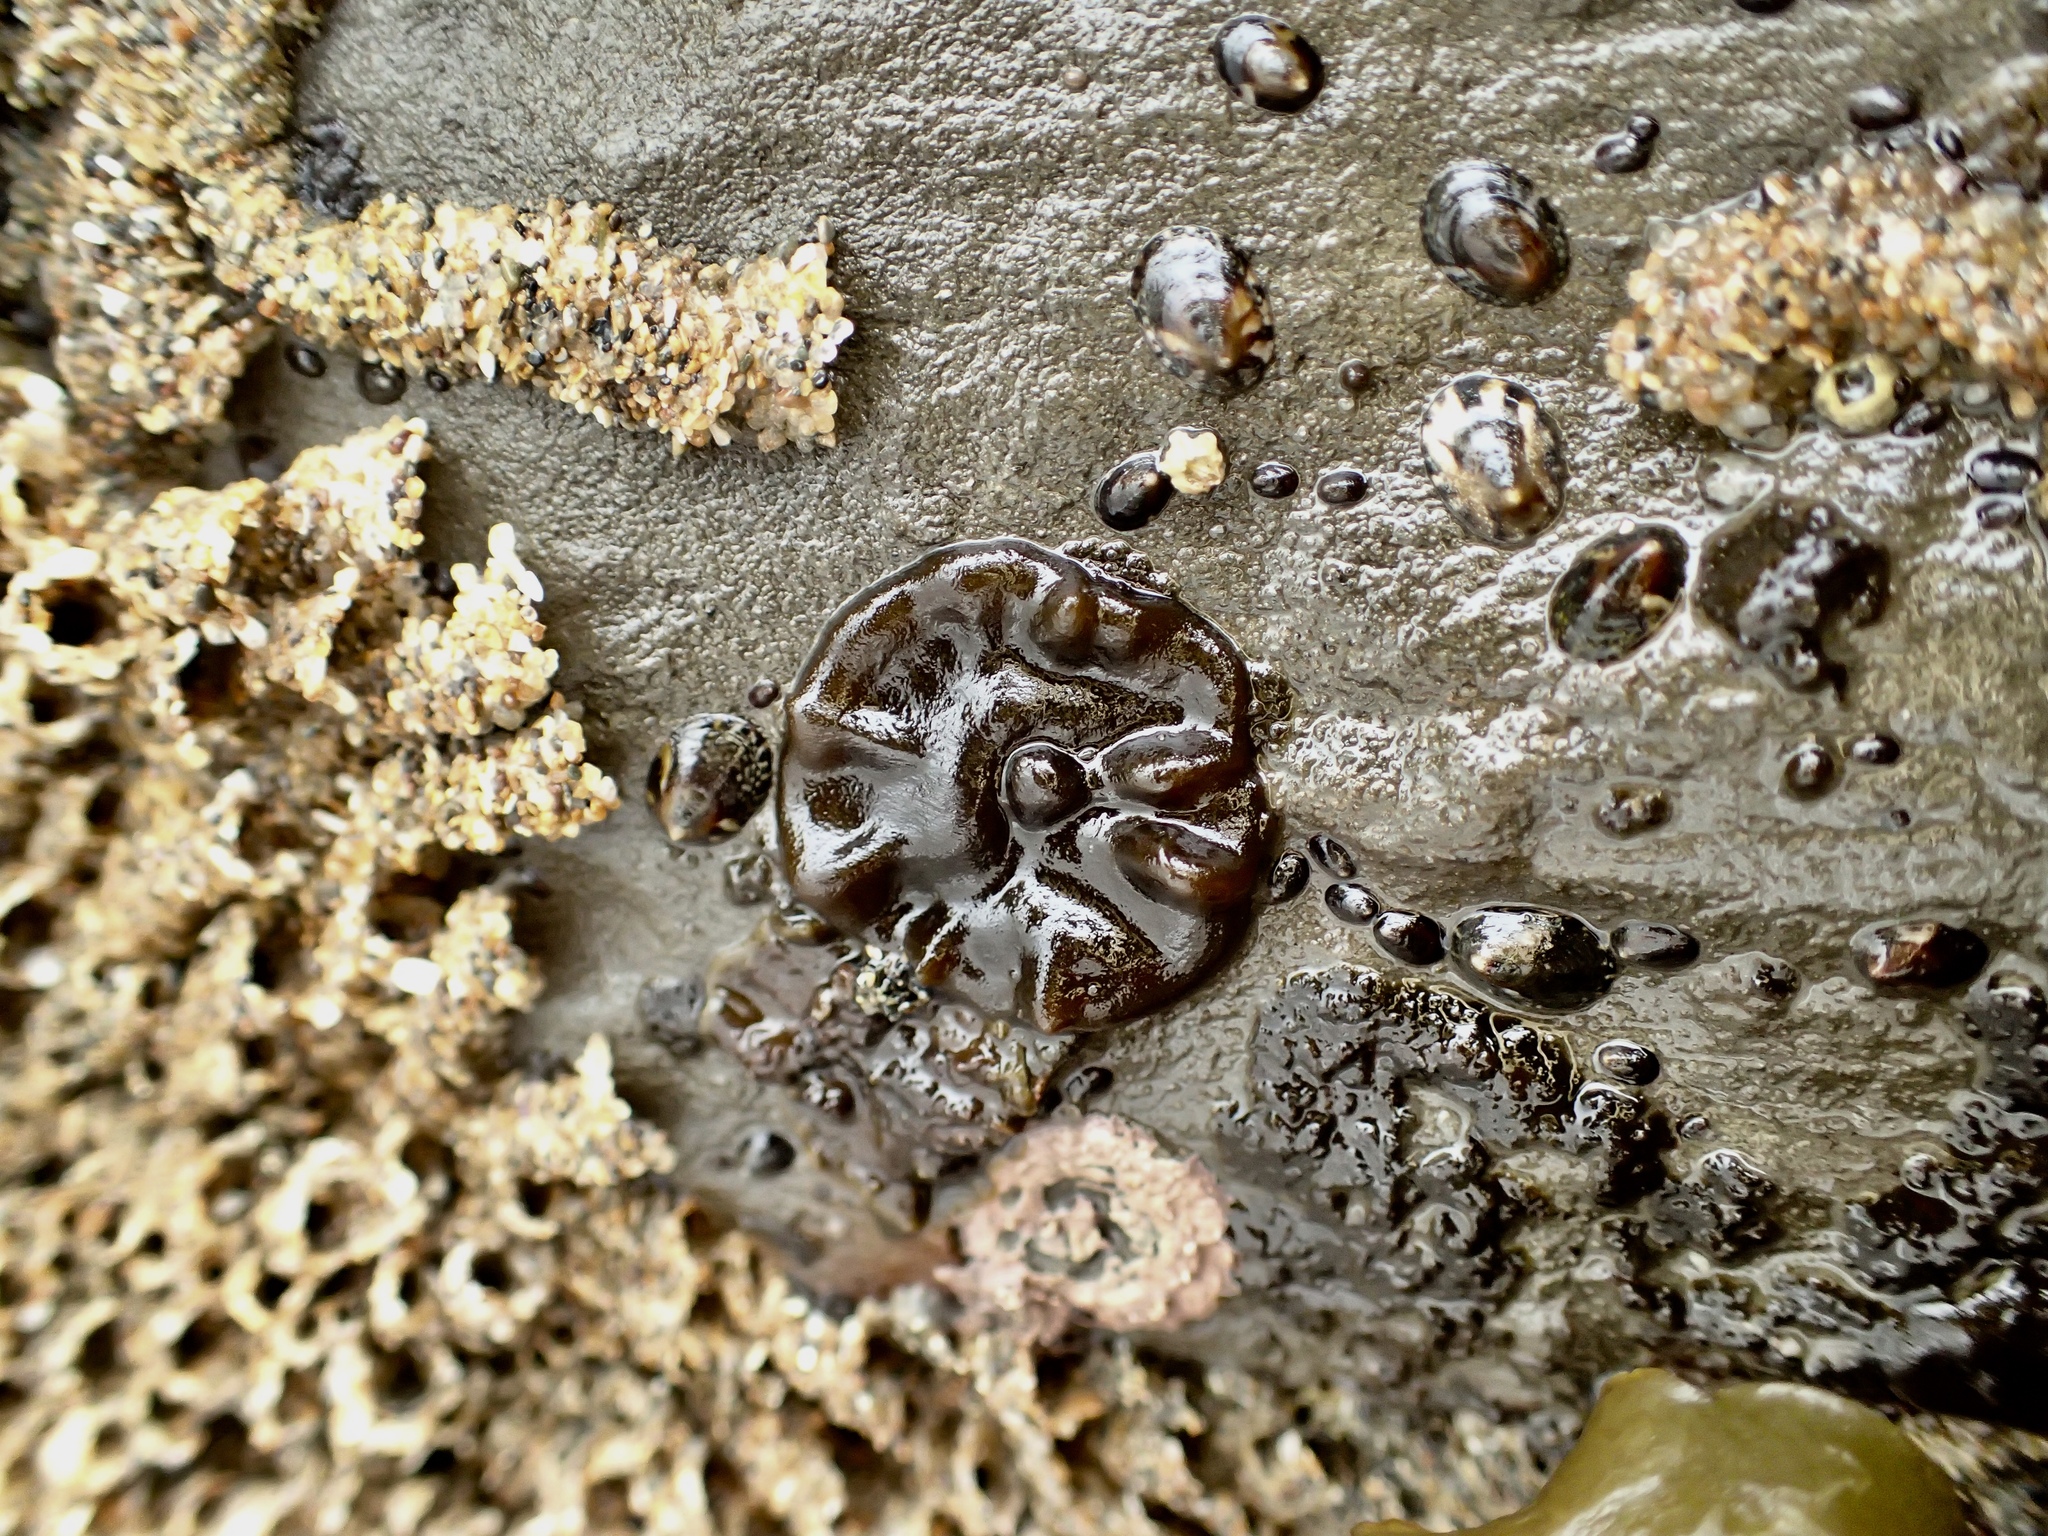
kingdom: Chromista
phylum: Ochrophyta
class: Phaeophyceae
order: Ectocarpales
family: Petrospongiaceae
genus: Petrospongium
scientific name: Petrospongium rugosum
